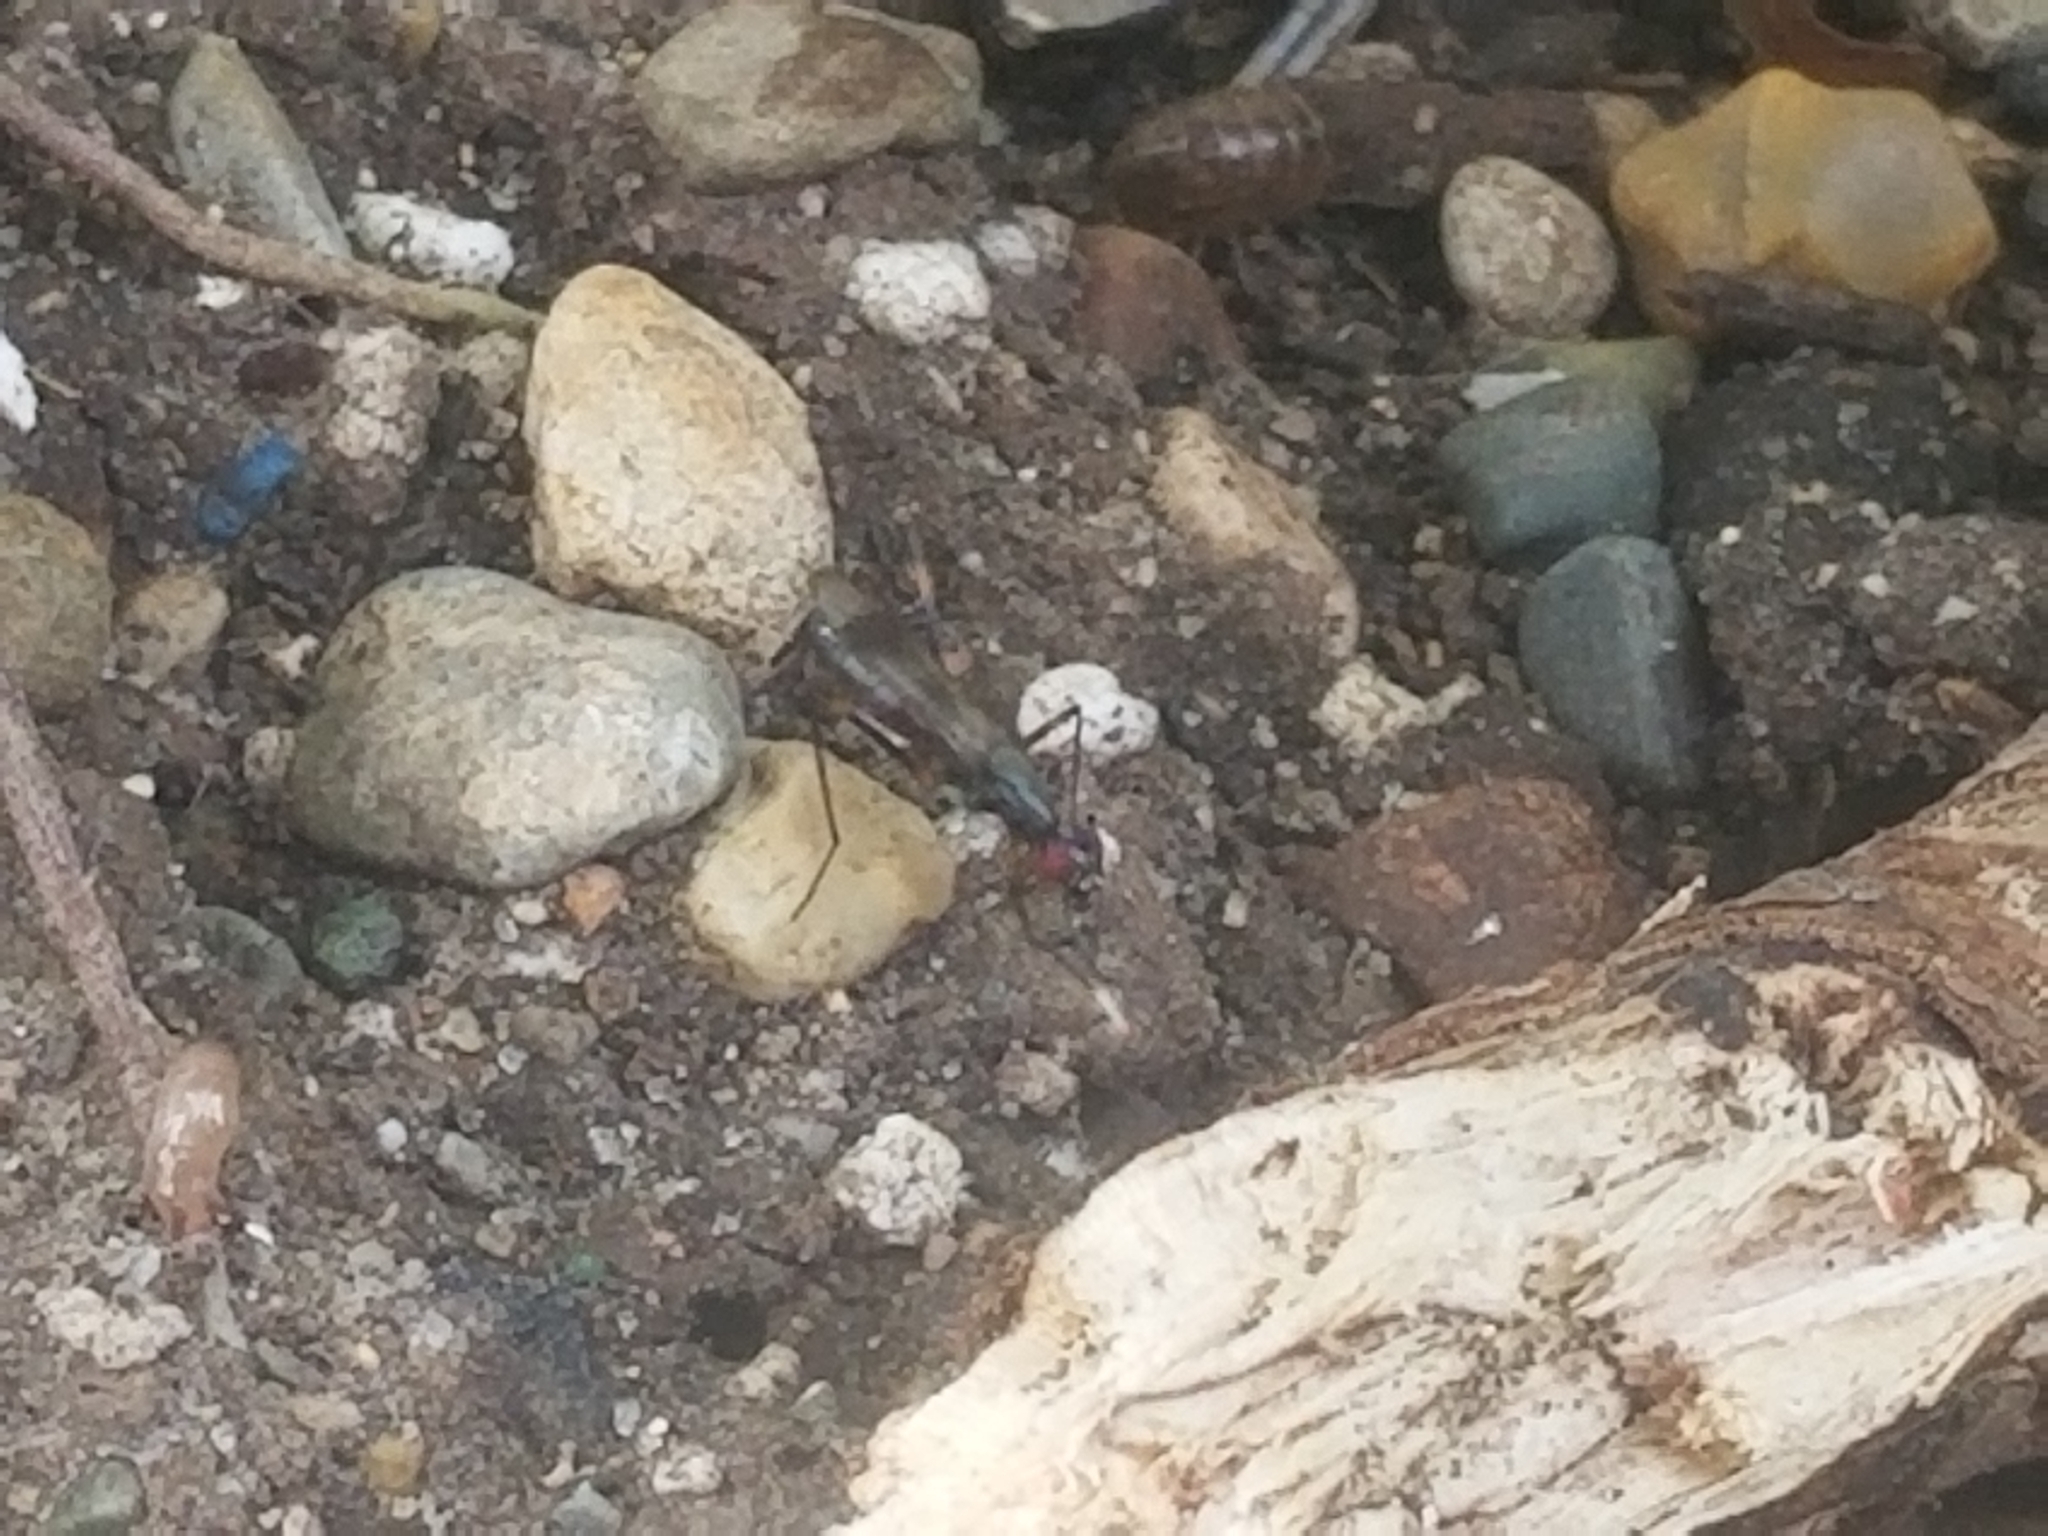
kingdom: Animalia
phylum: Arthropoda
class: Insecta
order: Diptera
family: Micropezidae
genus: Rainieria
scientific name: Rainieria antennaepes
